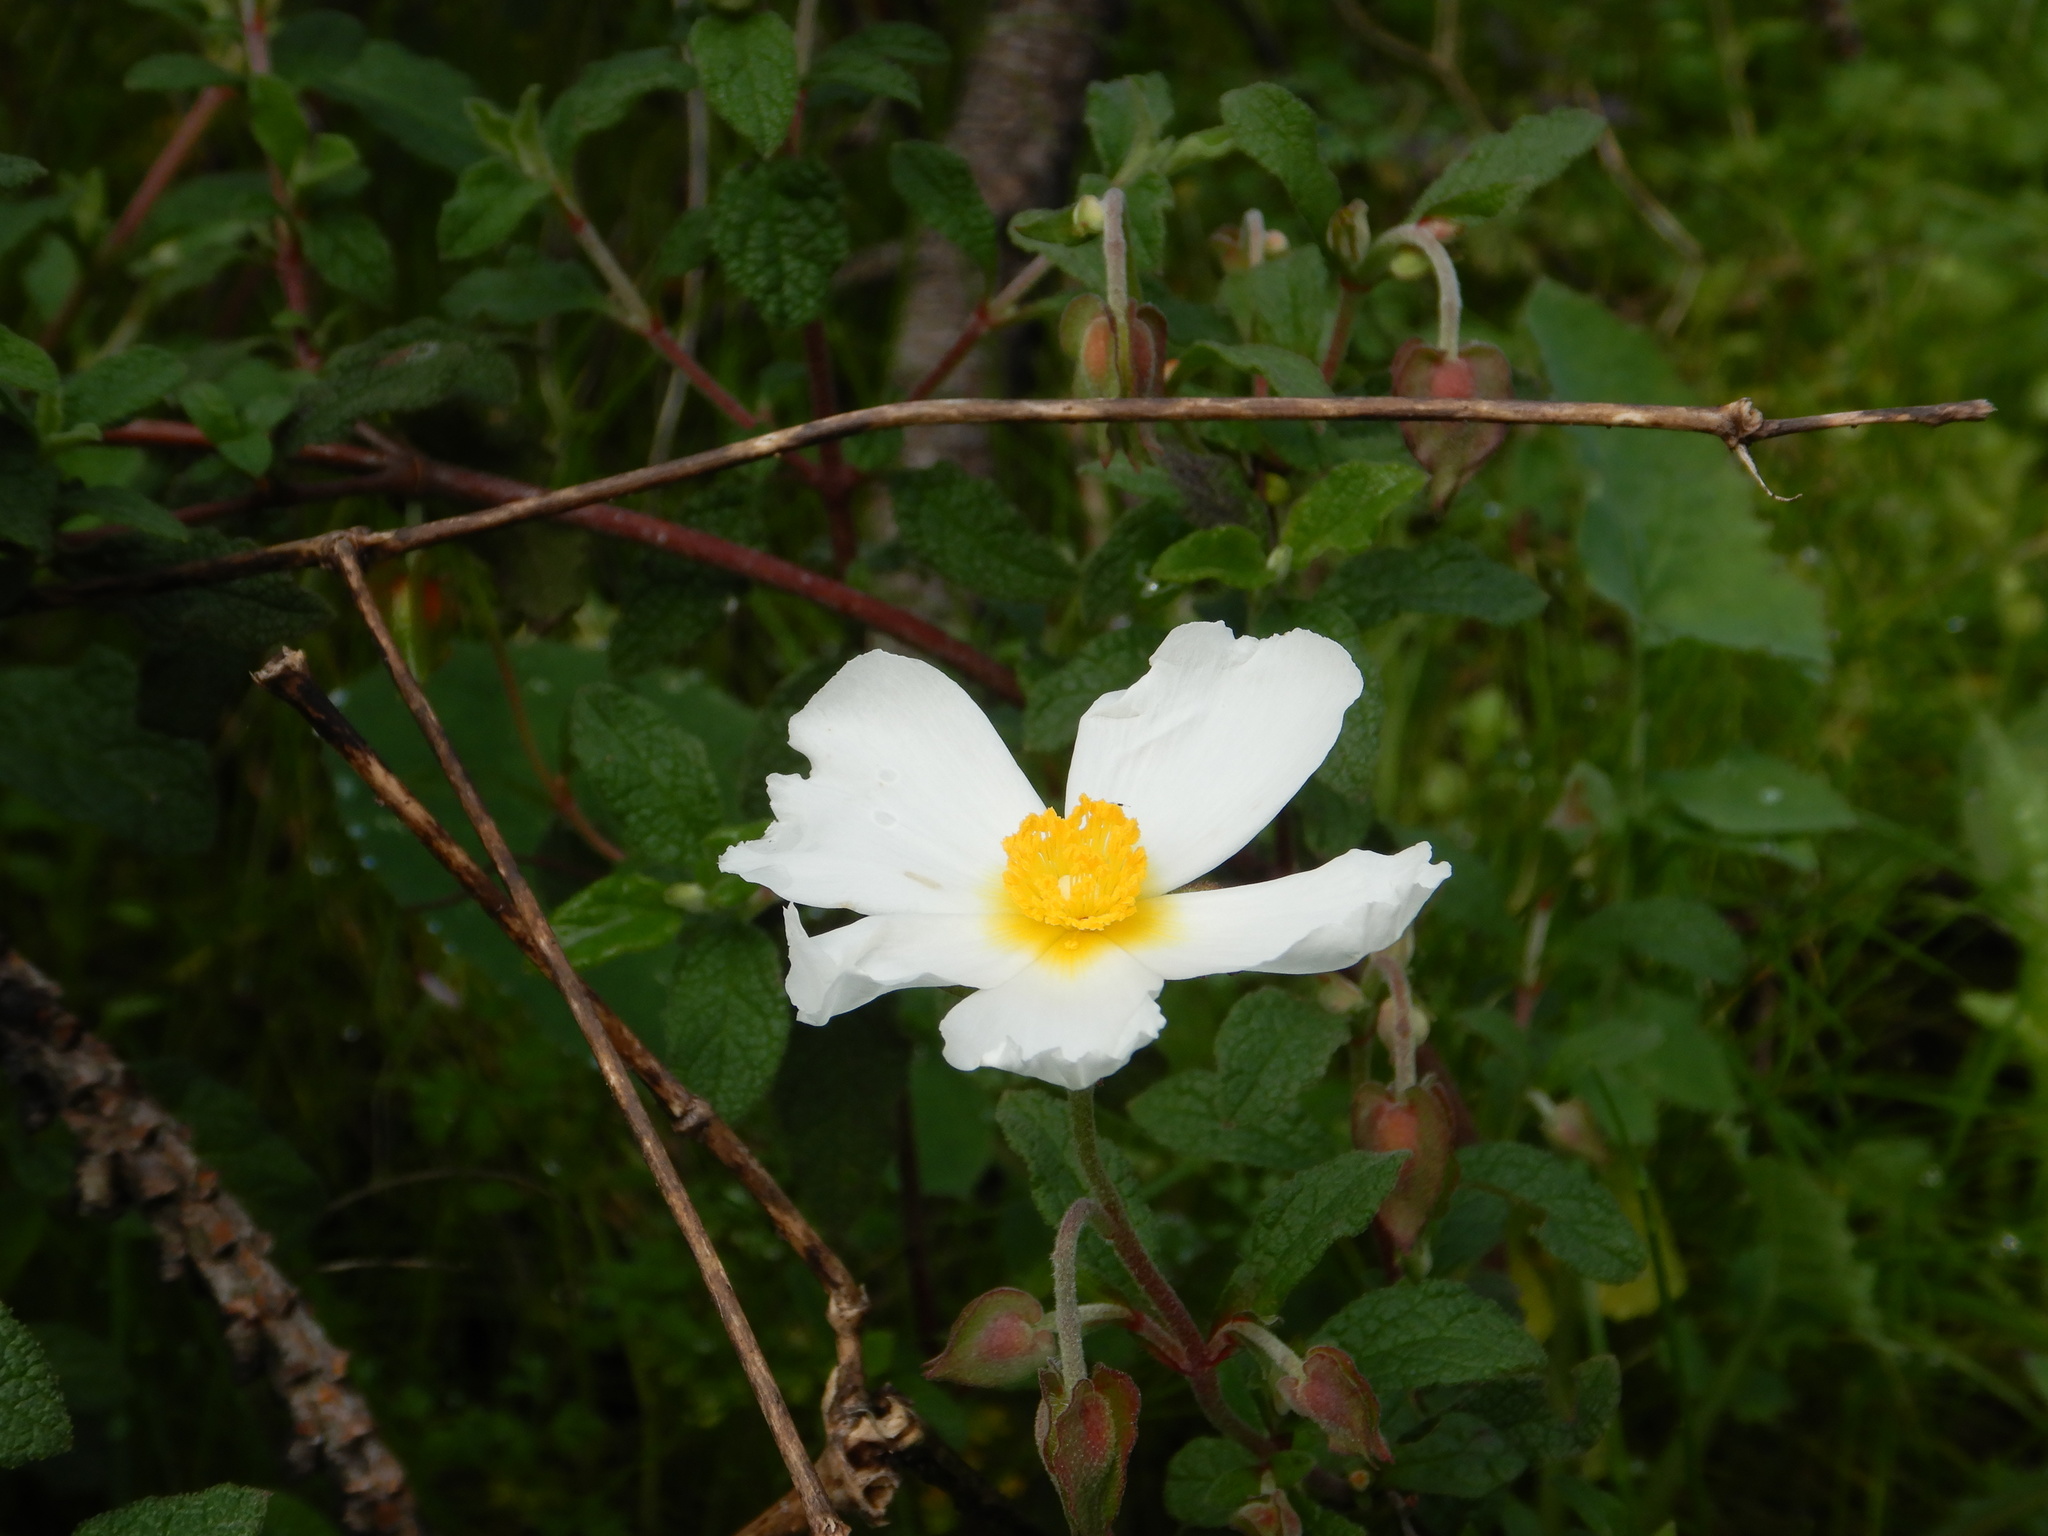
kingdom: Plantae
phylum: Tracheophyta
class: Magnoliopsida
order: Malvales
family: Cistaceae
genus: Cistus
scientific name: Cistus salviifolius
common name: Salvia cistus
